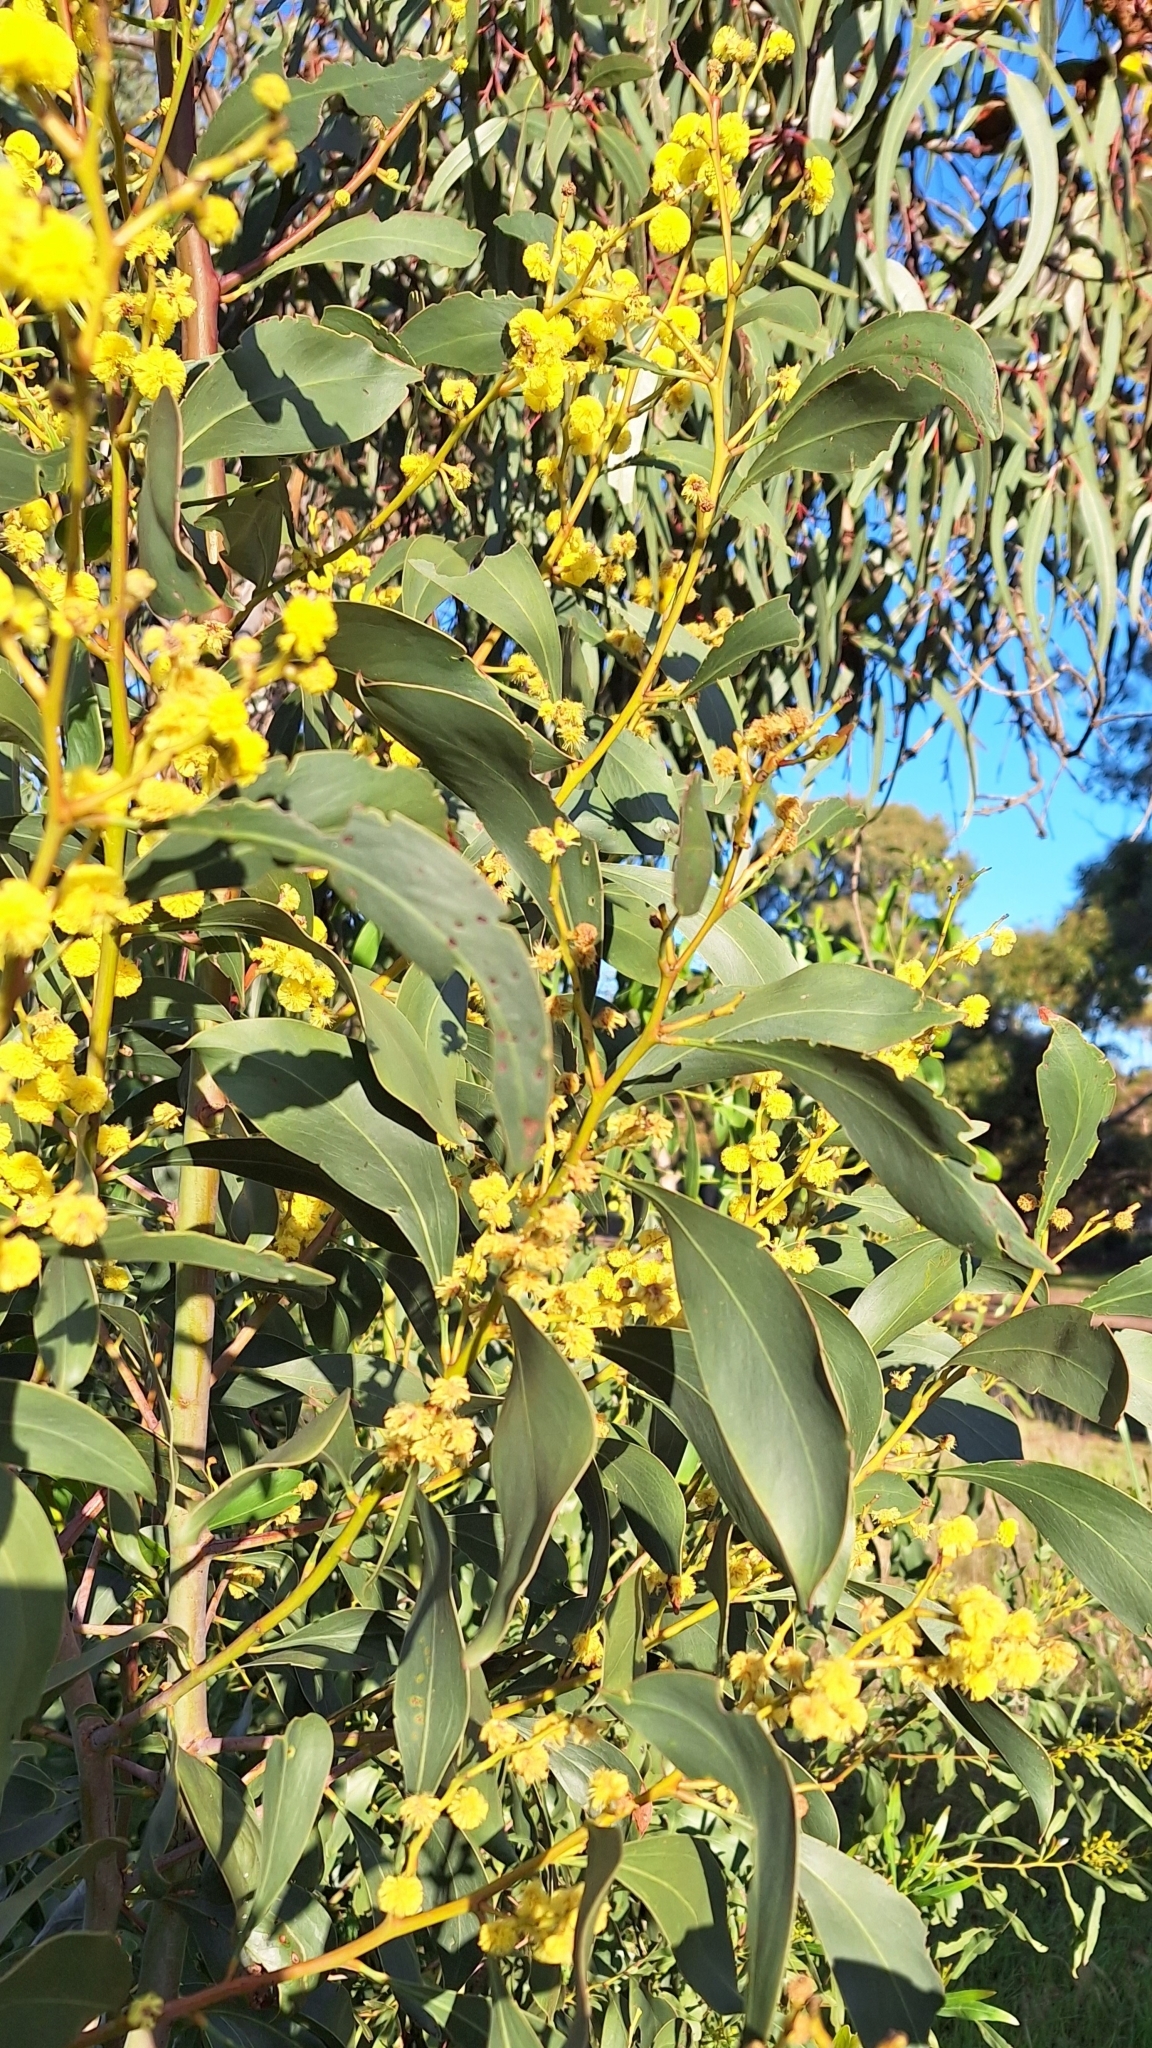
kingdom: Plantae
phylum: Tracheophyta
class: Magnoliopsida
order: Fabales
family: Fabaceae
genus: Acacia
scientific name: Acacia pycnantha
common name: Golden wattle
